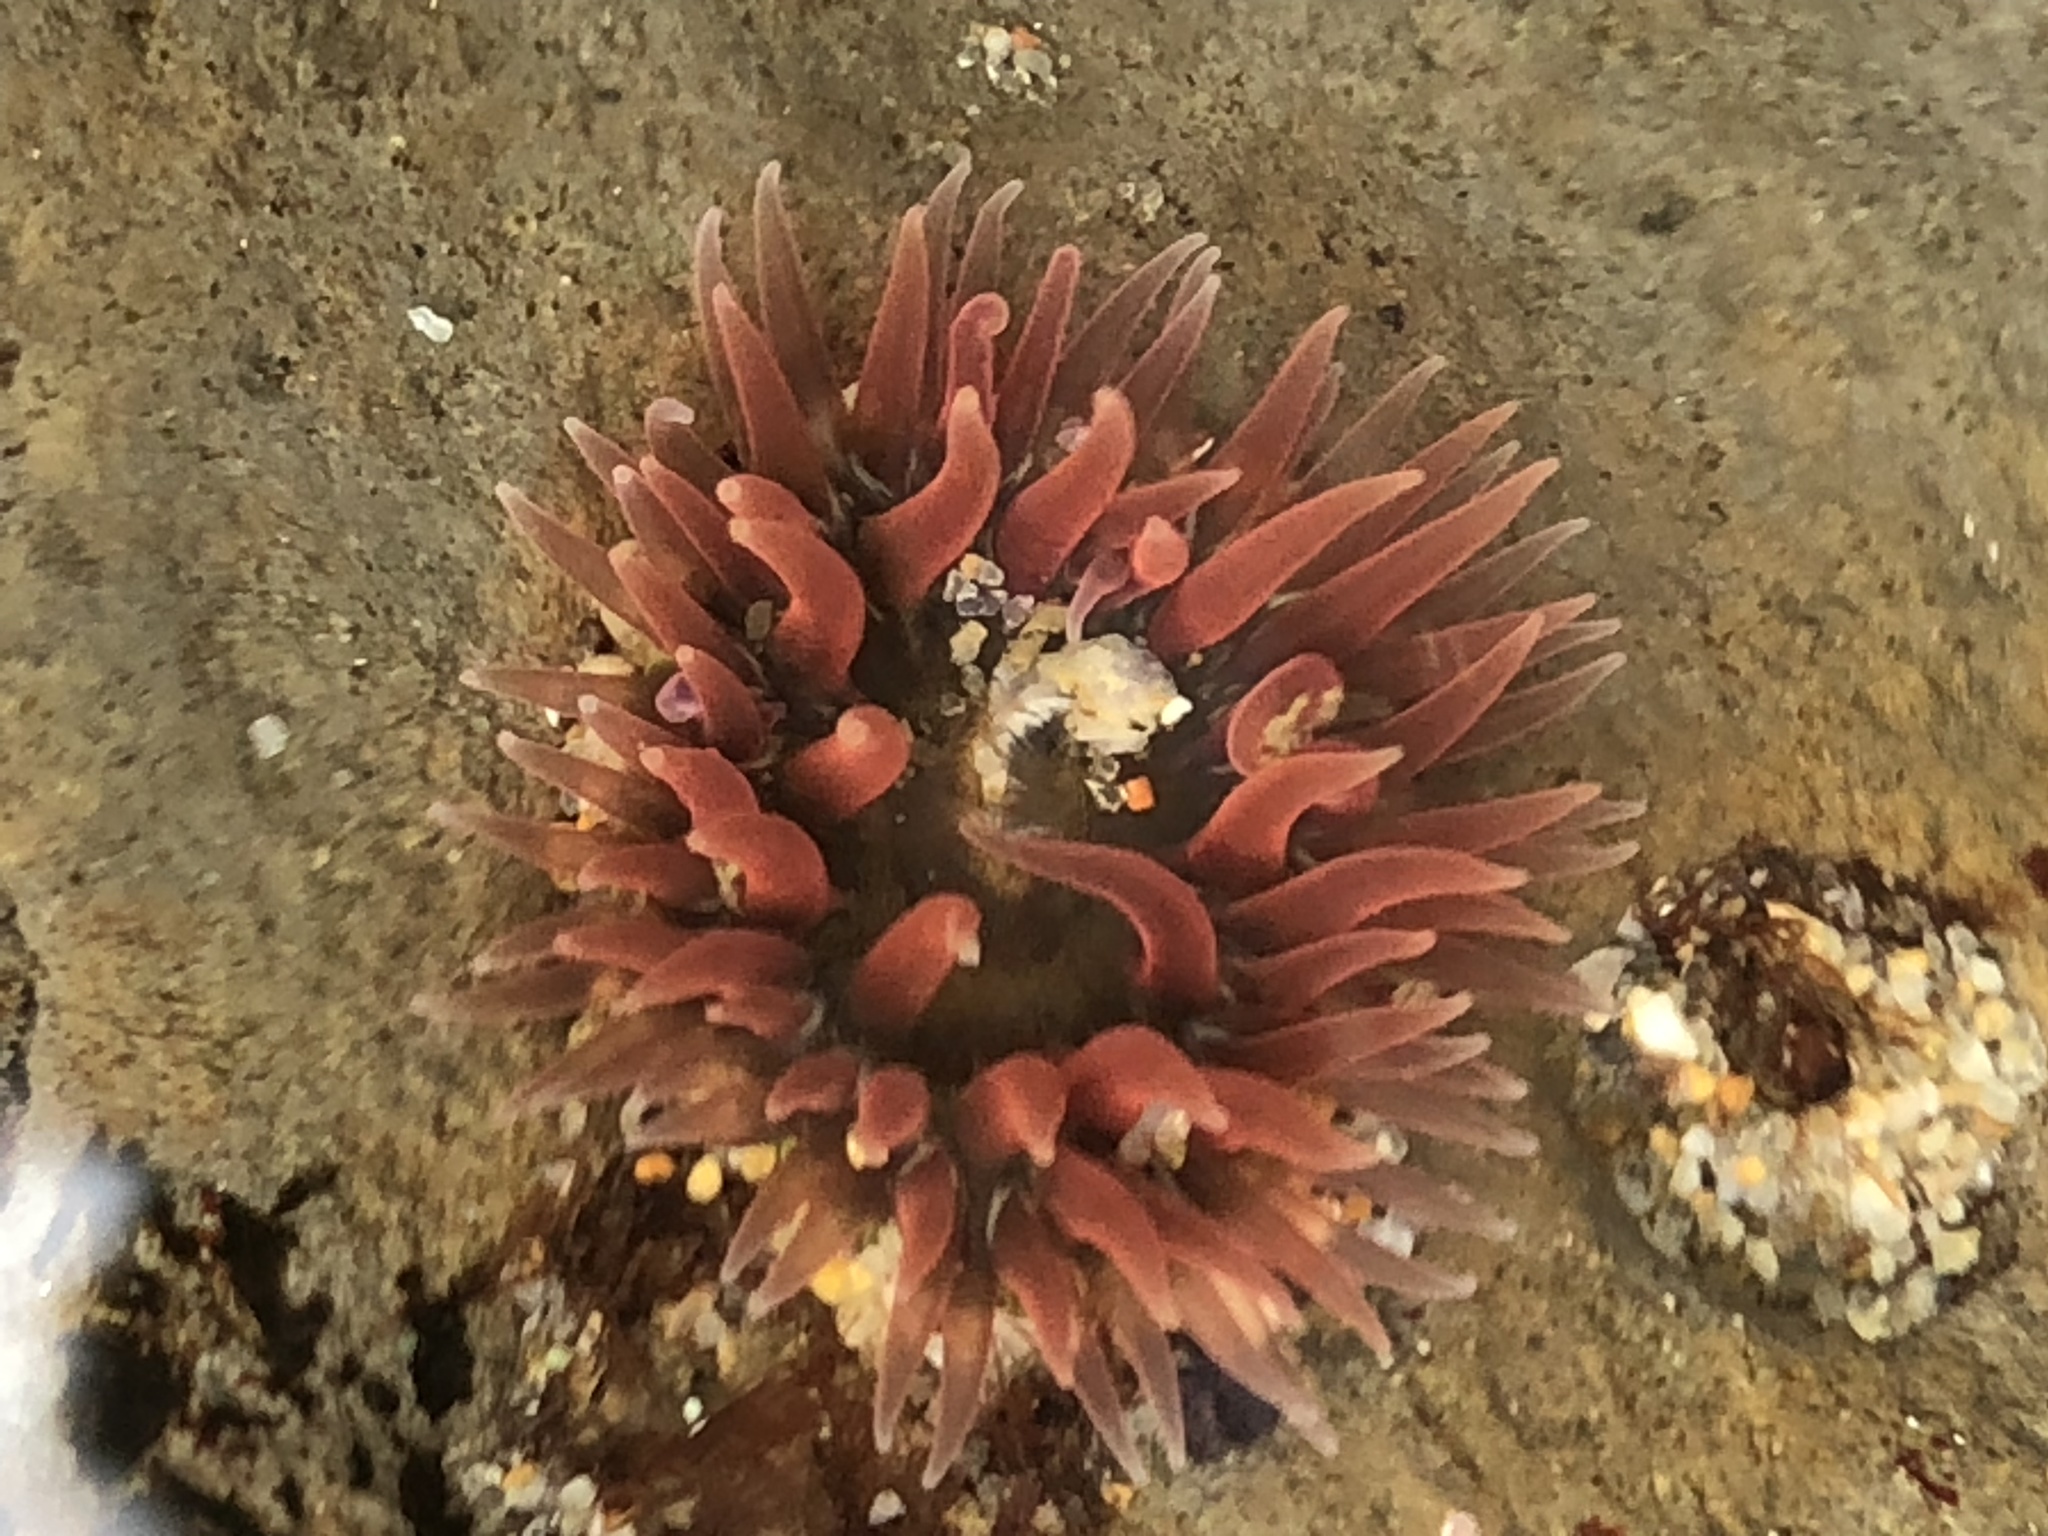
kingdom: Animalia
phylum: Cnidaria
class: Anthozoa
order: Actiniaria
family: Actiniidae
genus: Anthopleura
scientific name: Anthopleura artemisia
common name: Buried sea anemone
